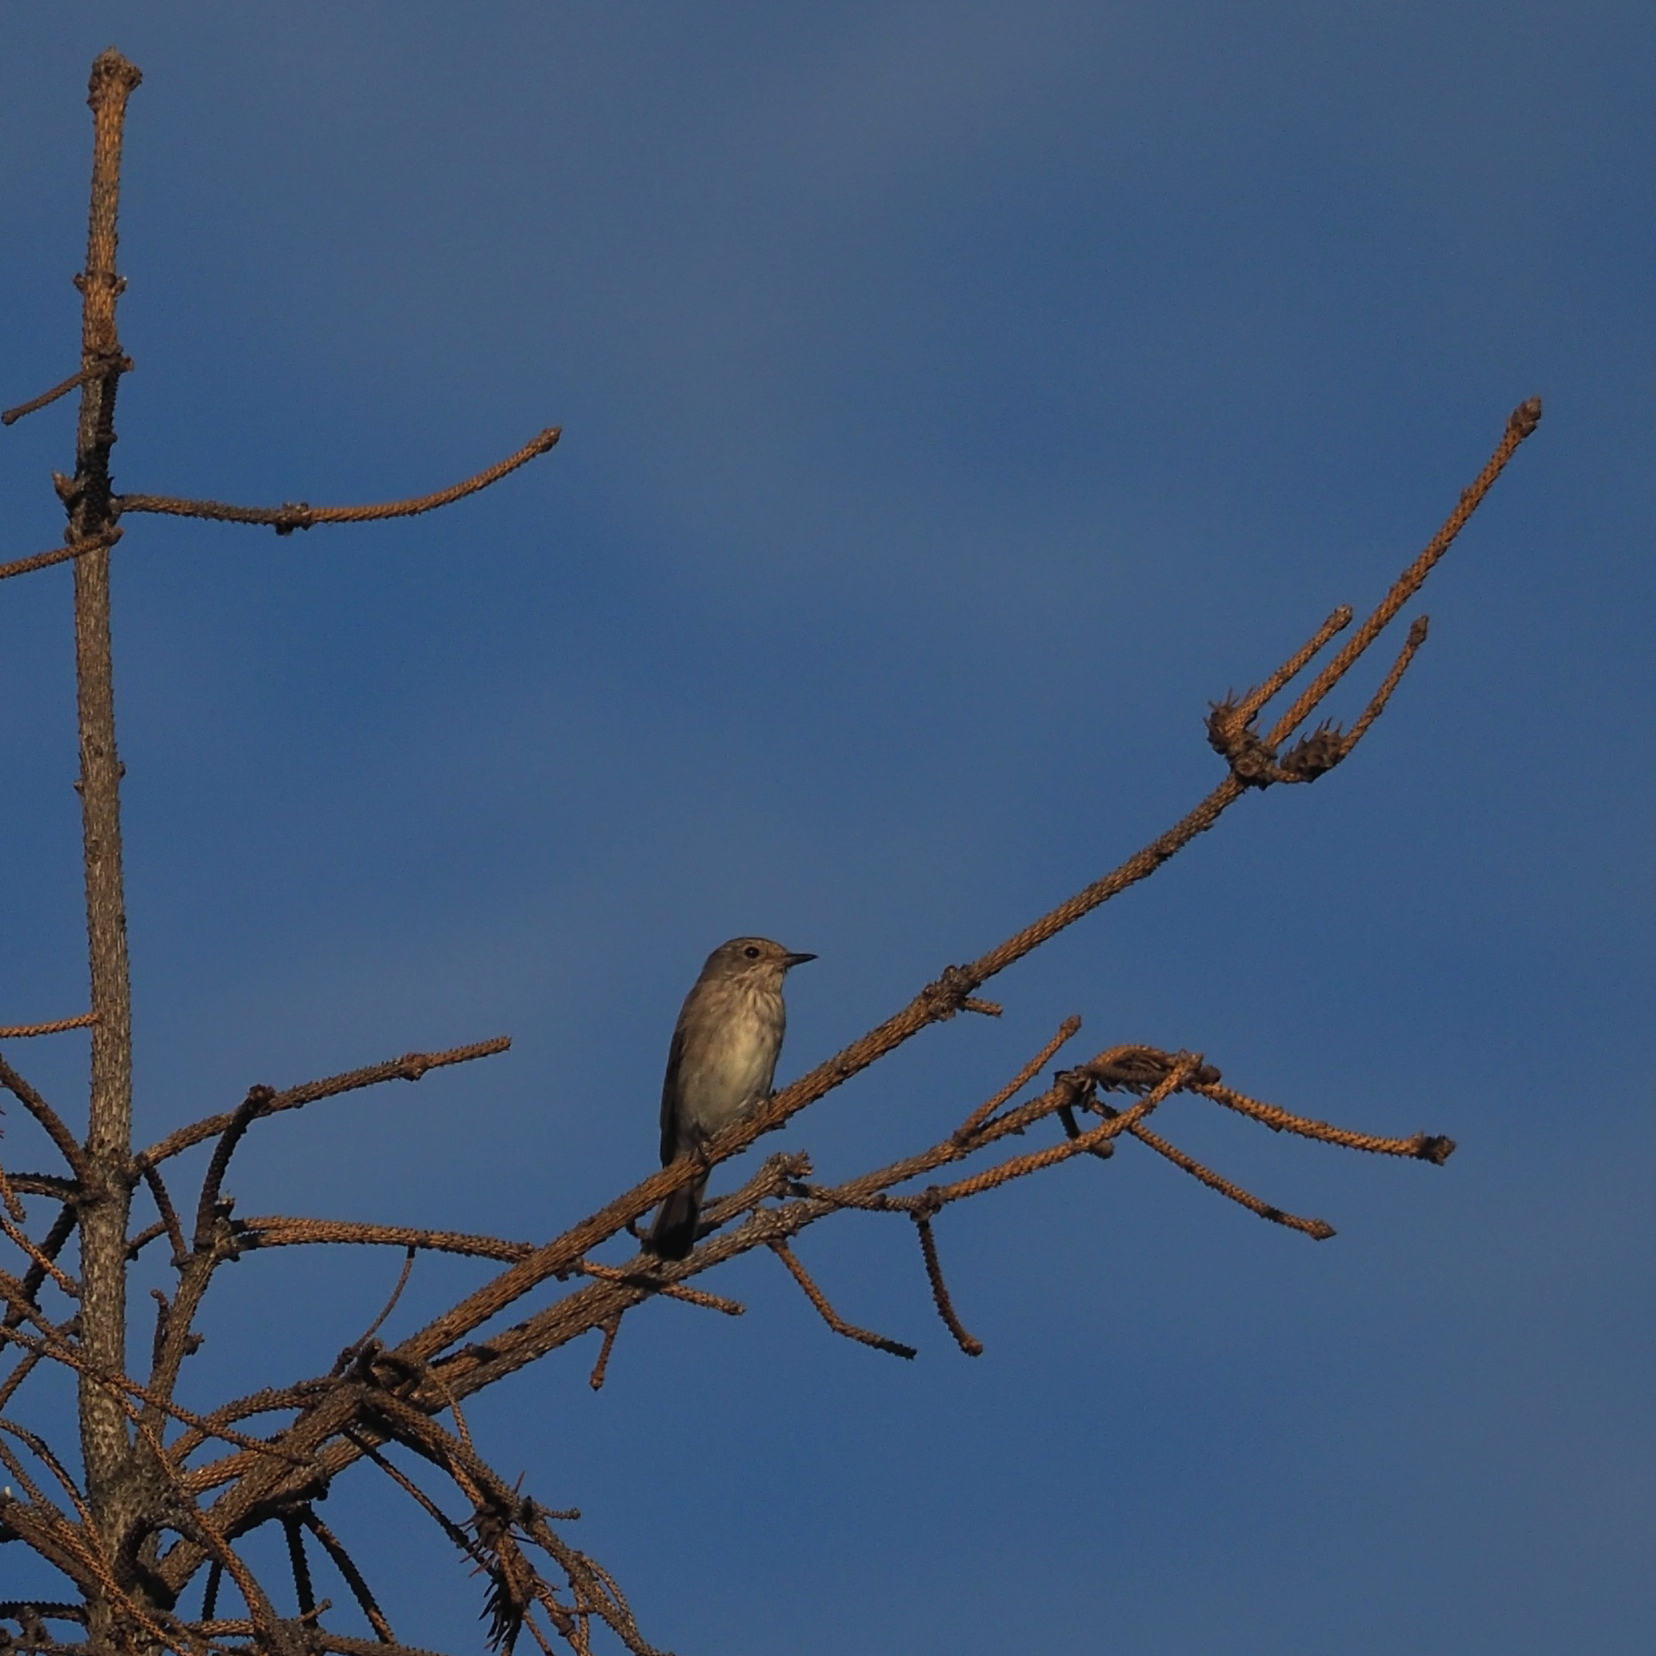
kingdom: Animalia
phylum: Chordata
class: Aves
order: Passeriformes
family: Muscicapidae
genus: Muscicapa
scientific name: Muscicapa striata
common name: Spotted flycatcher
